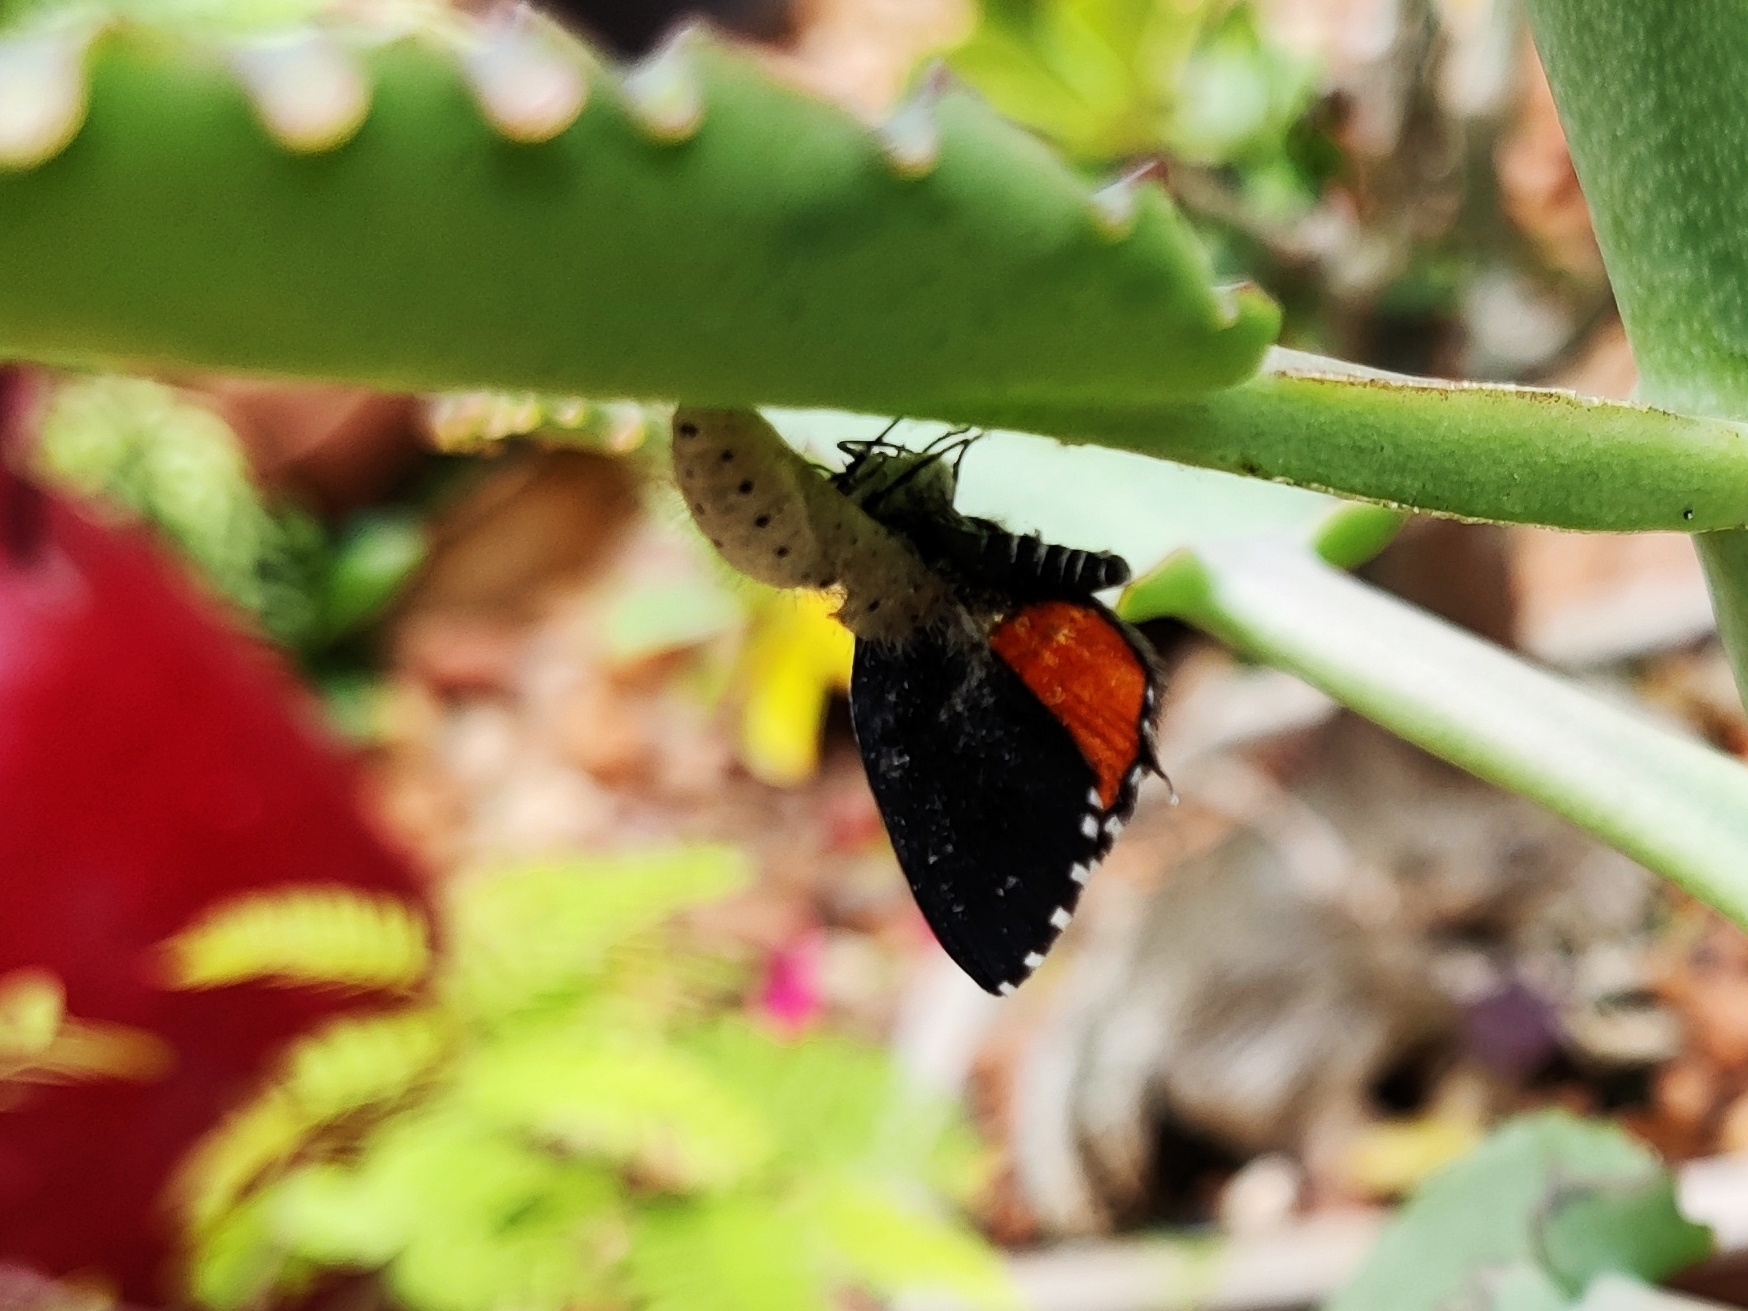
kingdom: Animalia
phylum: Arthropoda
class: Insecta
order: Lepidoptera
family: Lycaenidae
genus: Talicada
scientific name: Talicada nyseus
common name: Red pierrot
